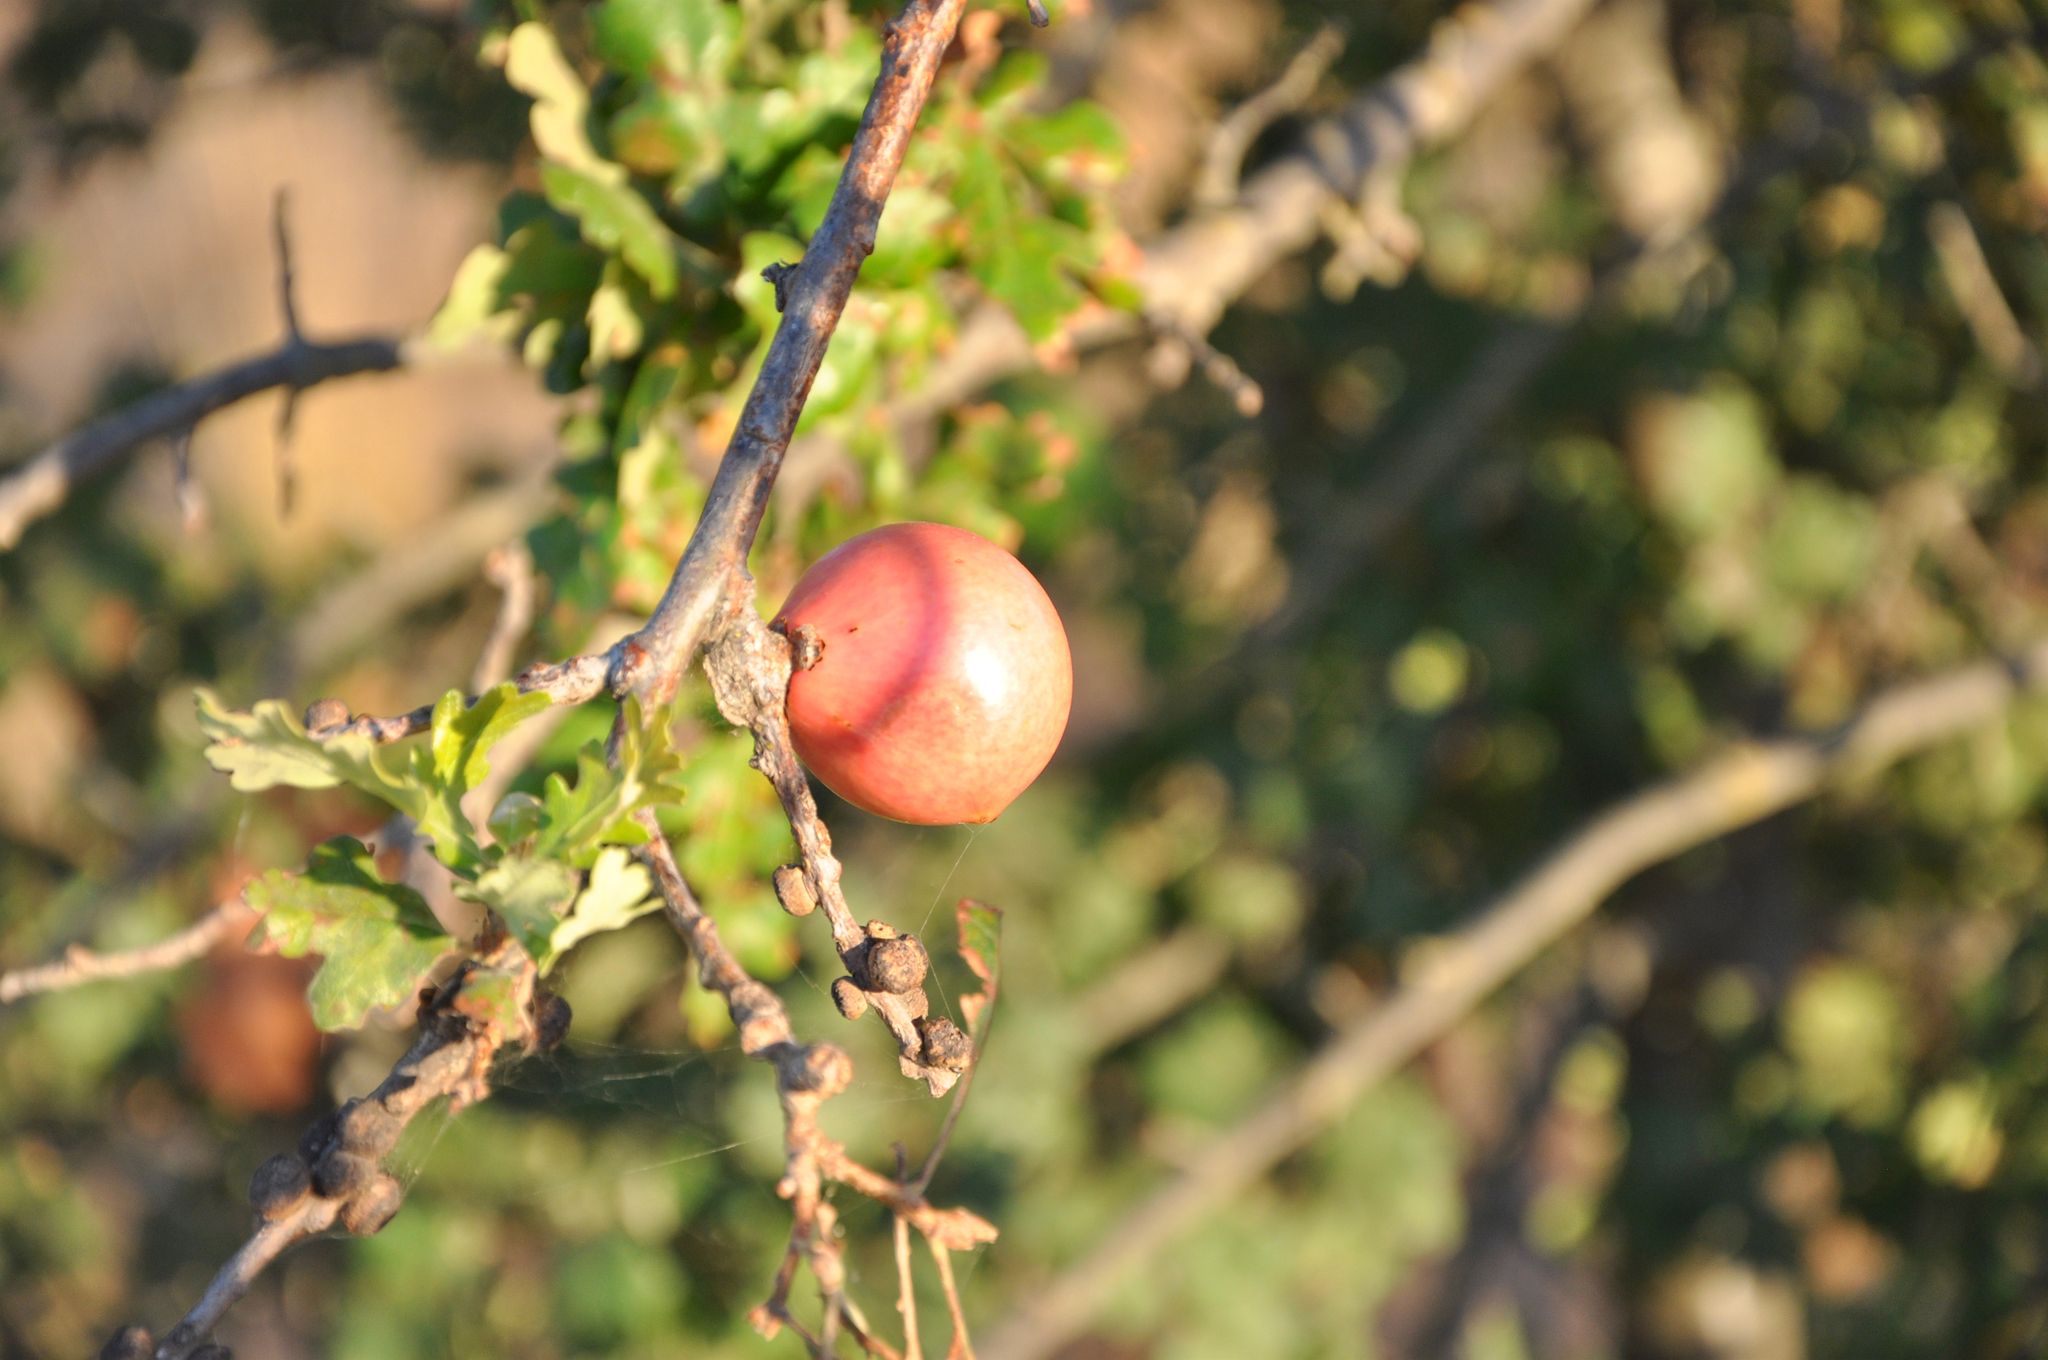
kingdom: Animalia
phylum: Arthropoda
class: Insecta
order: Hymenoptera
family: Cynipidae
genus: Andricus
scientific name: Andricus quercuscalifornicus
